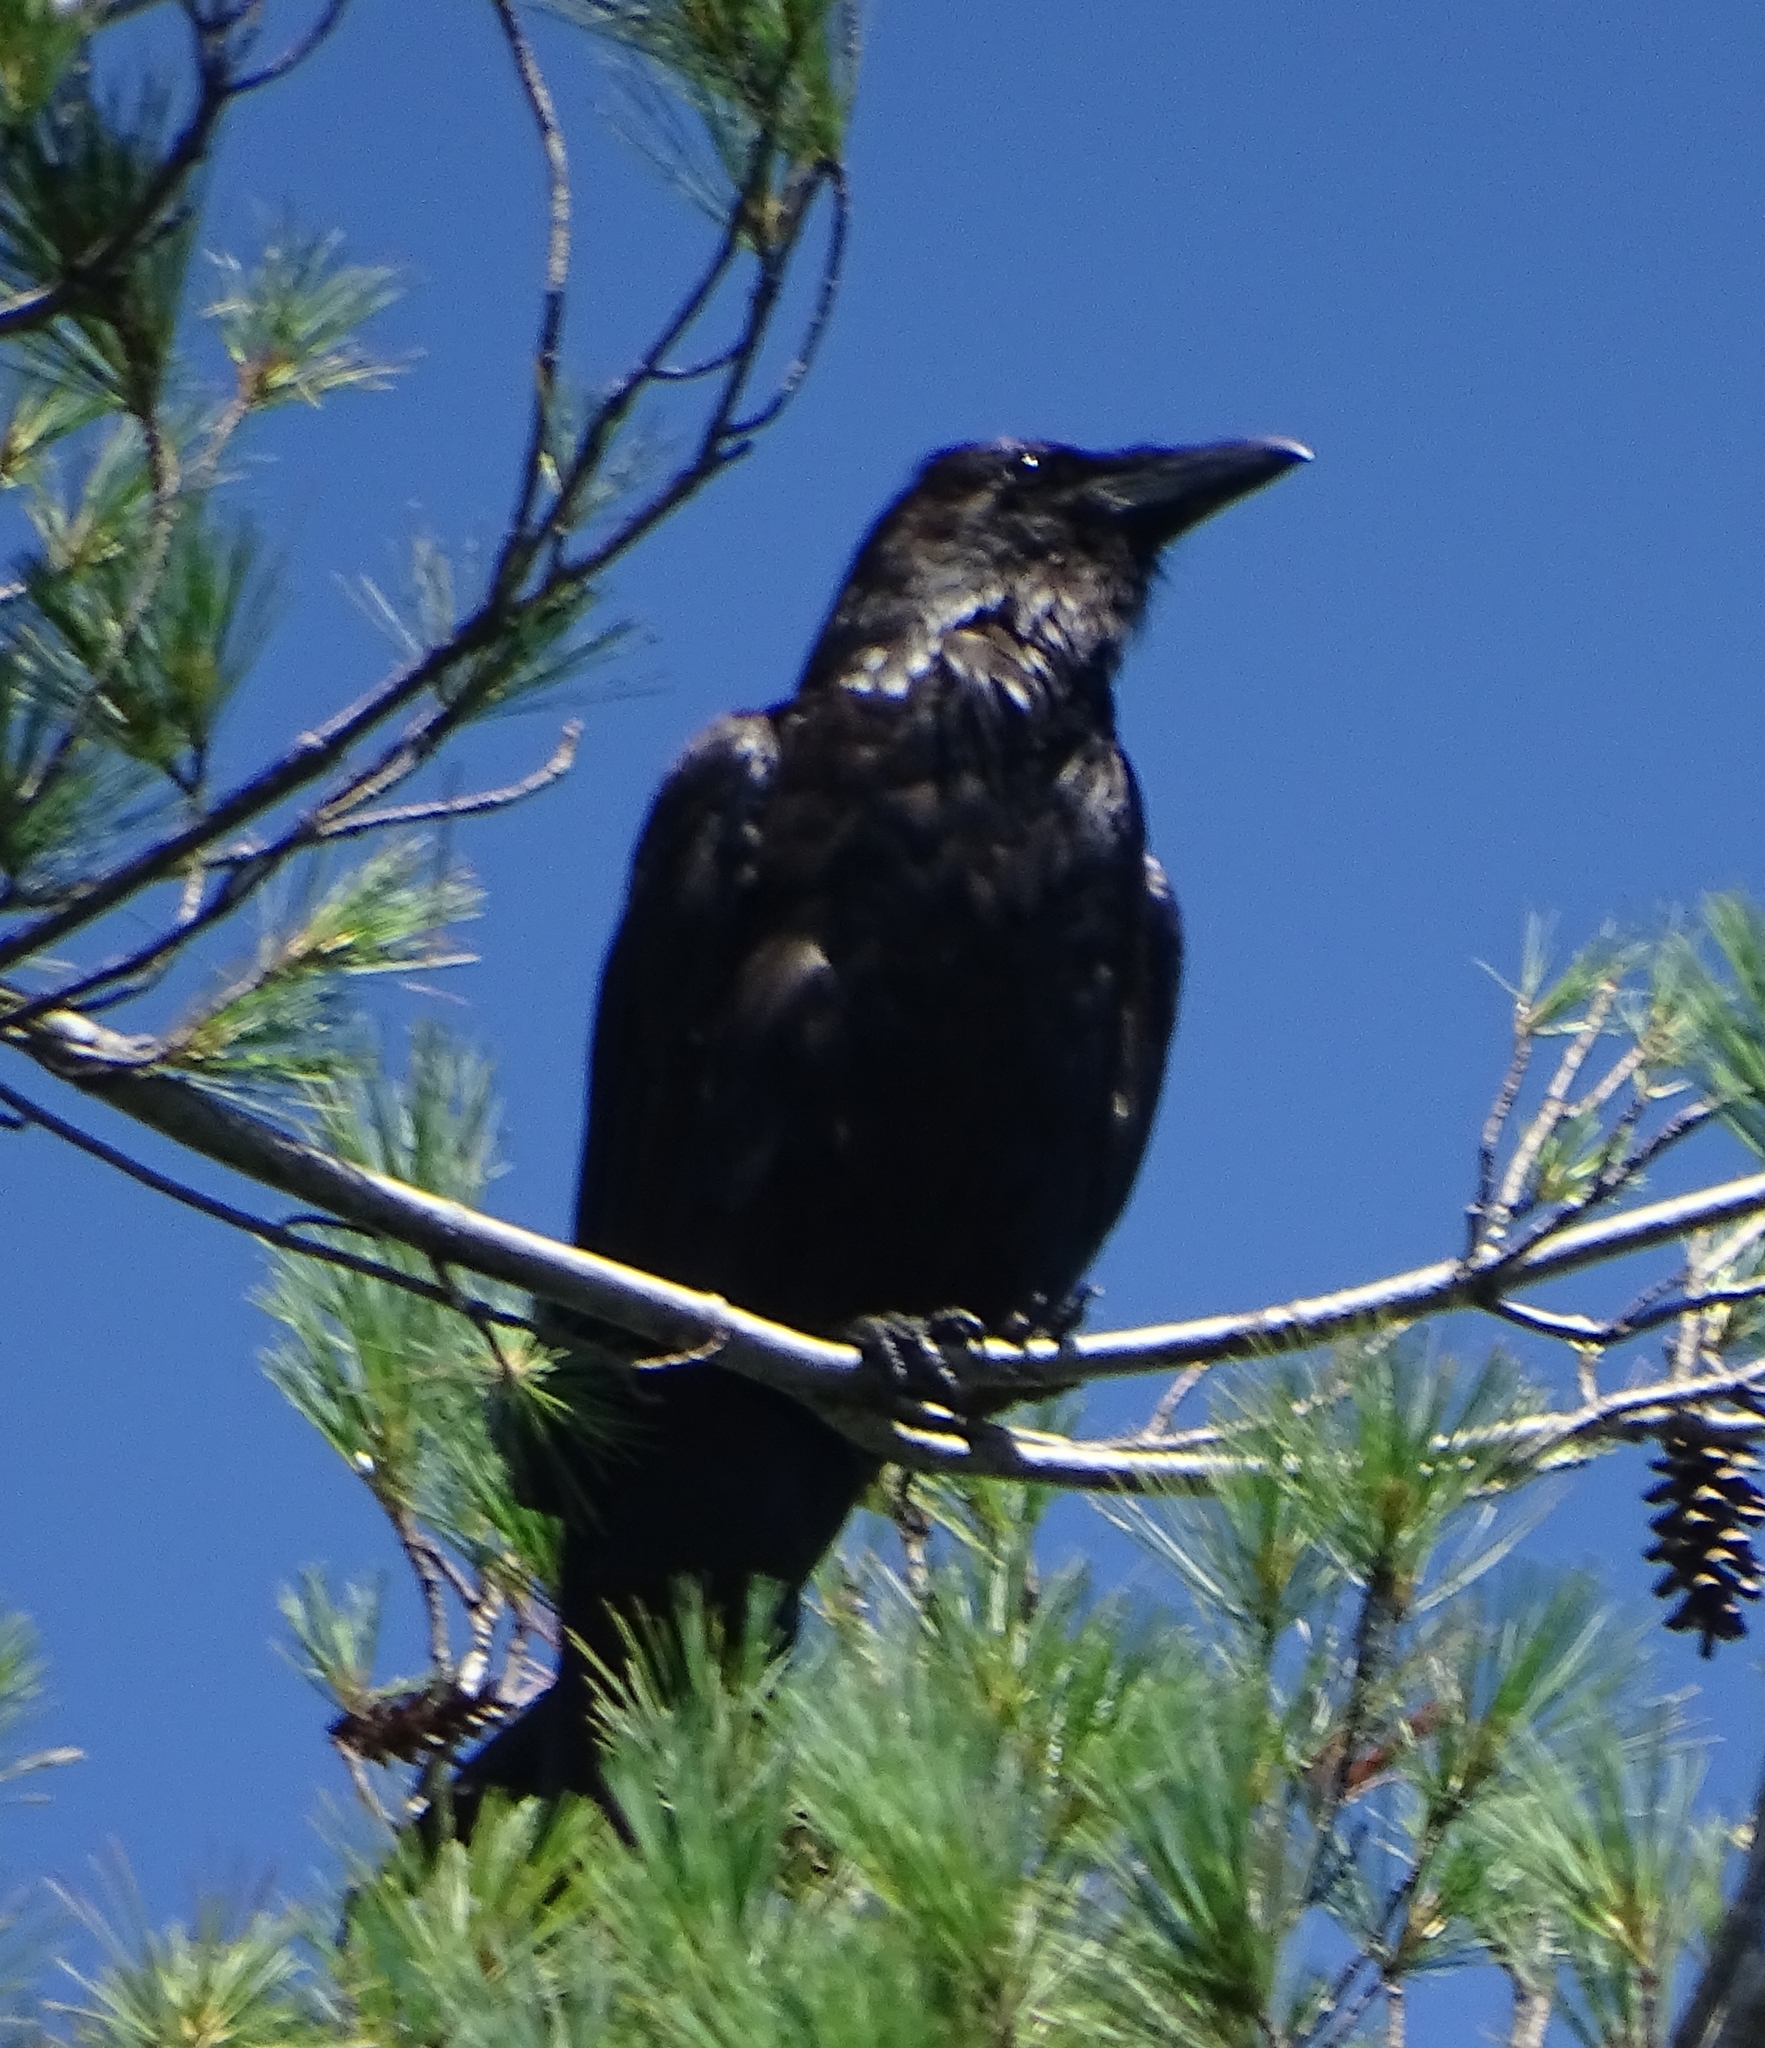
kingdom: Animalia
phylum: Chordata
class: Aves
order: Passeriformes
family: Corvidae
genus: Corvus
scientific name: Corvus corax
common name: Common raven
